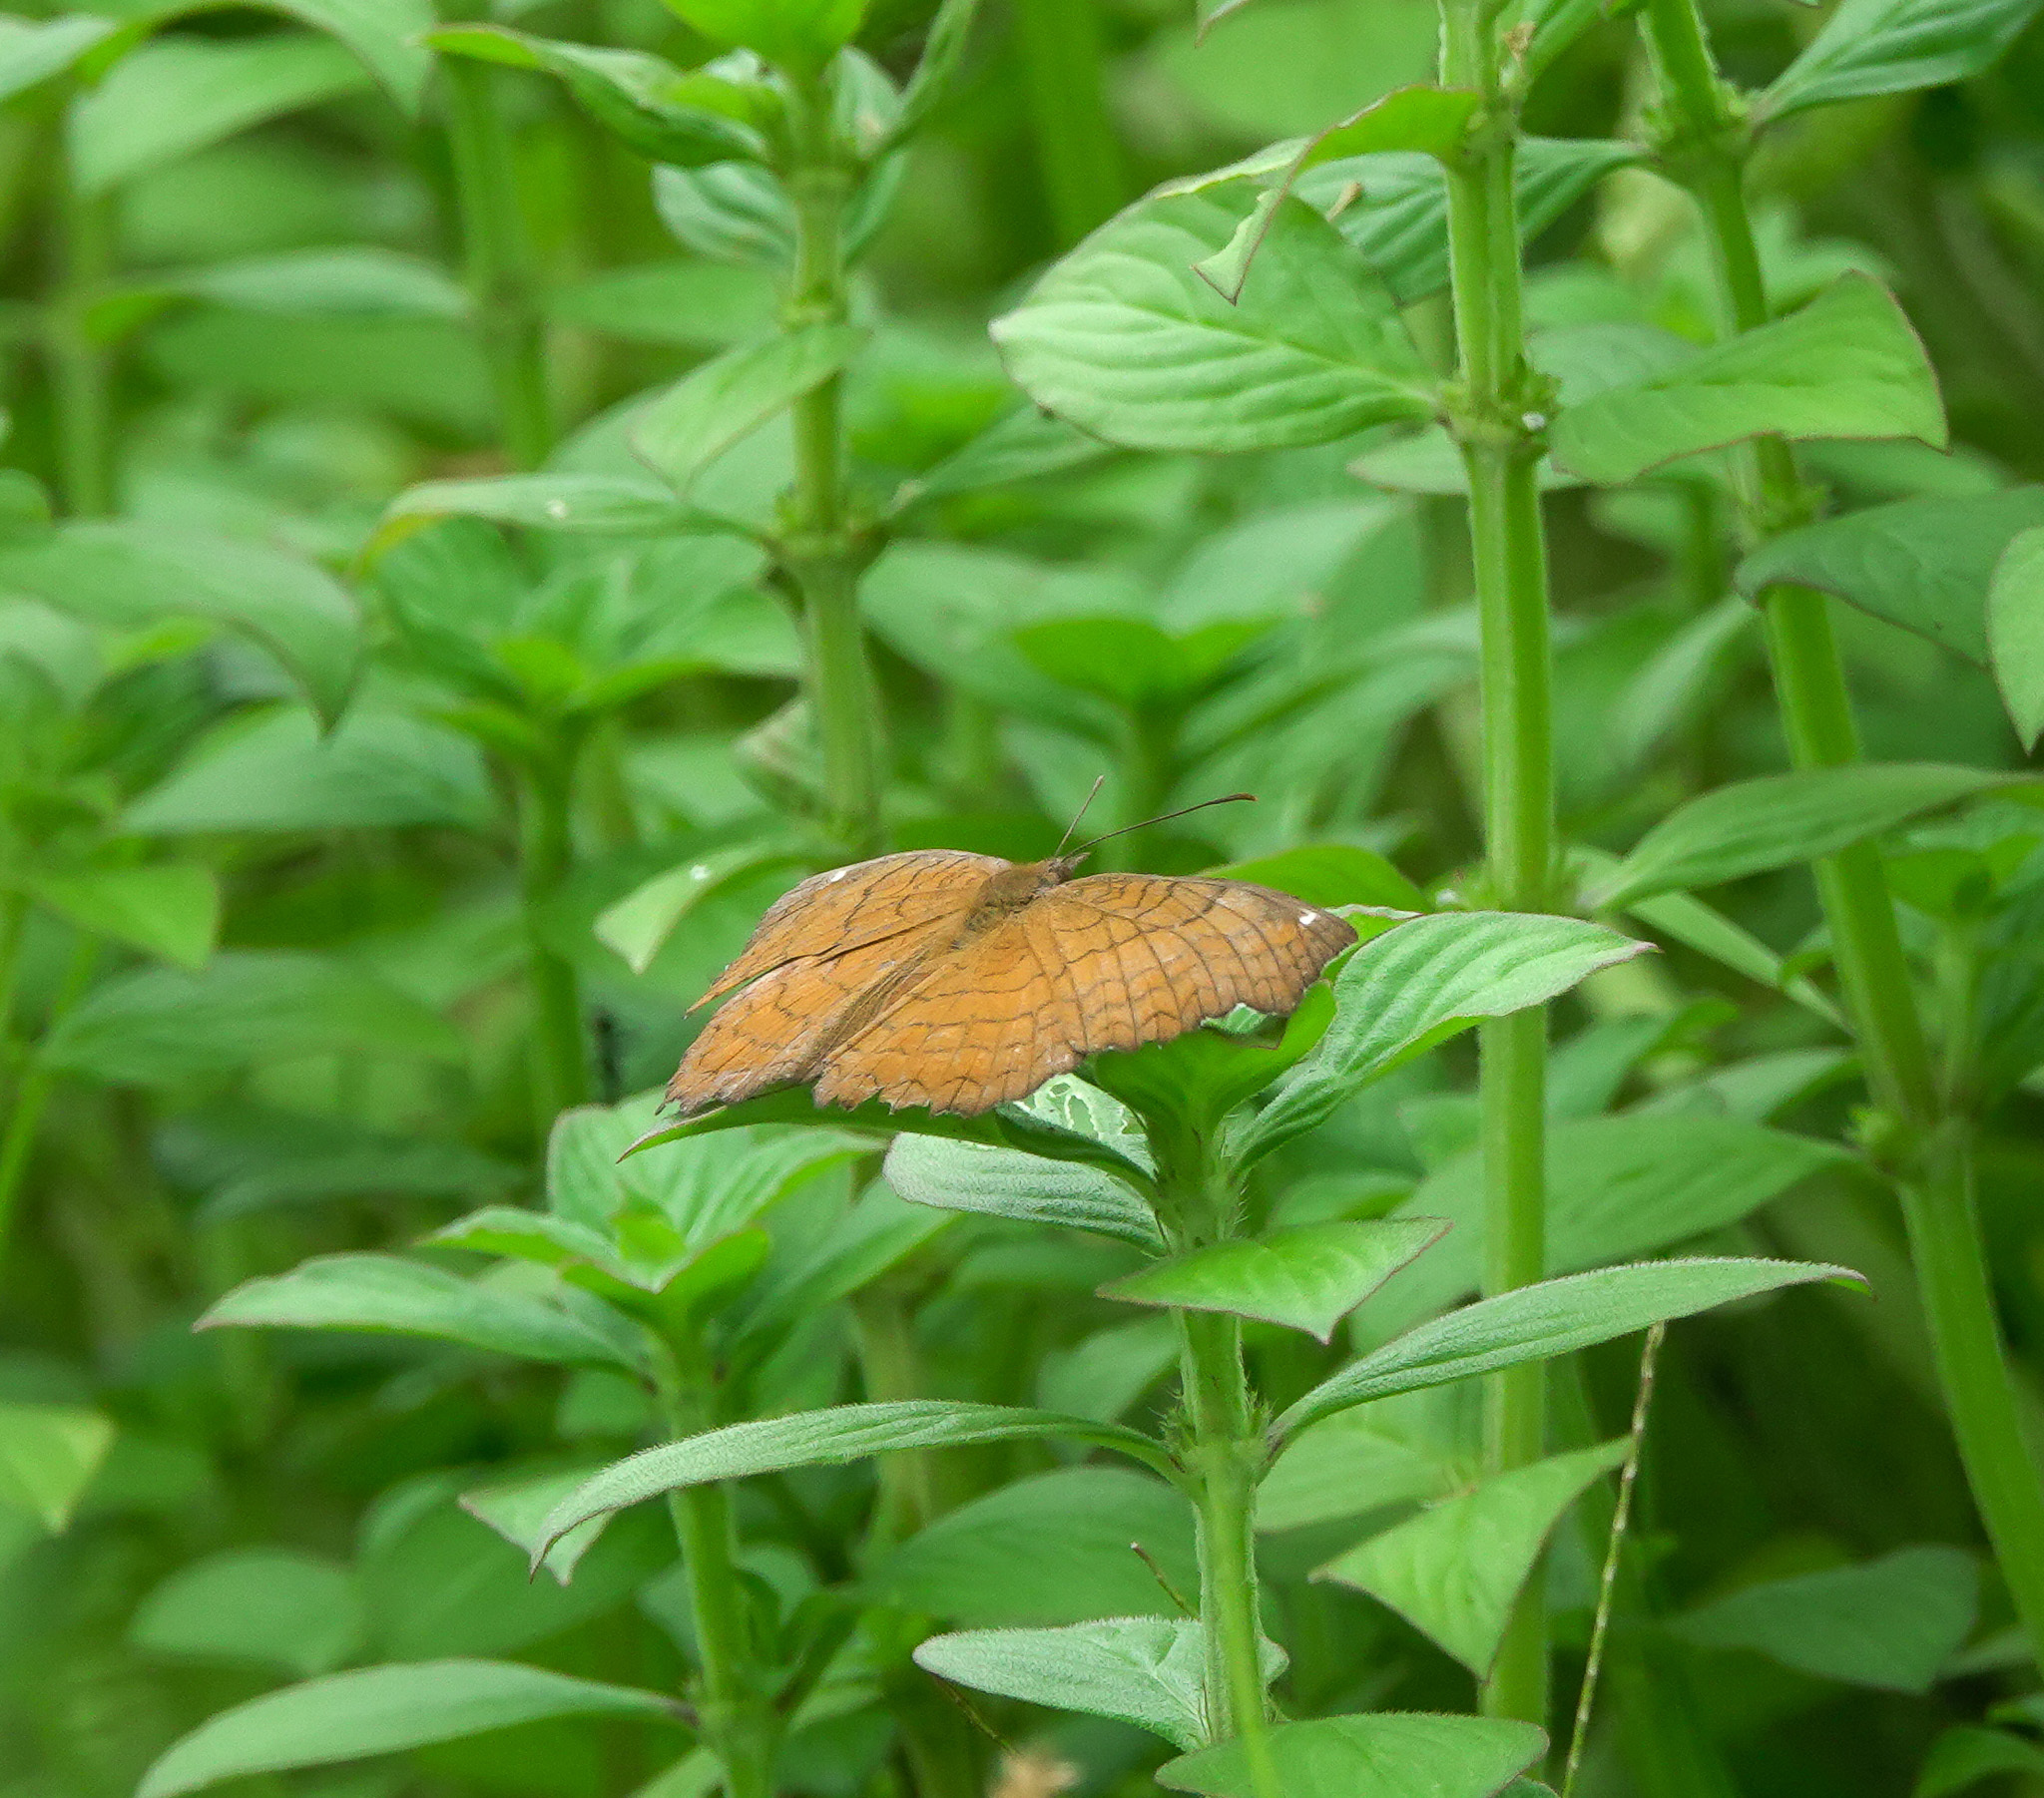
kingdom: Animalia
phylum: Arthropoda
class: Insecta
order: Lepidoptera
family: Nymphalidae
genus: Ariadne
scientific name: Ariadne ariadne
